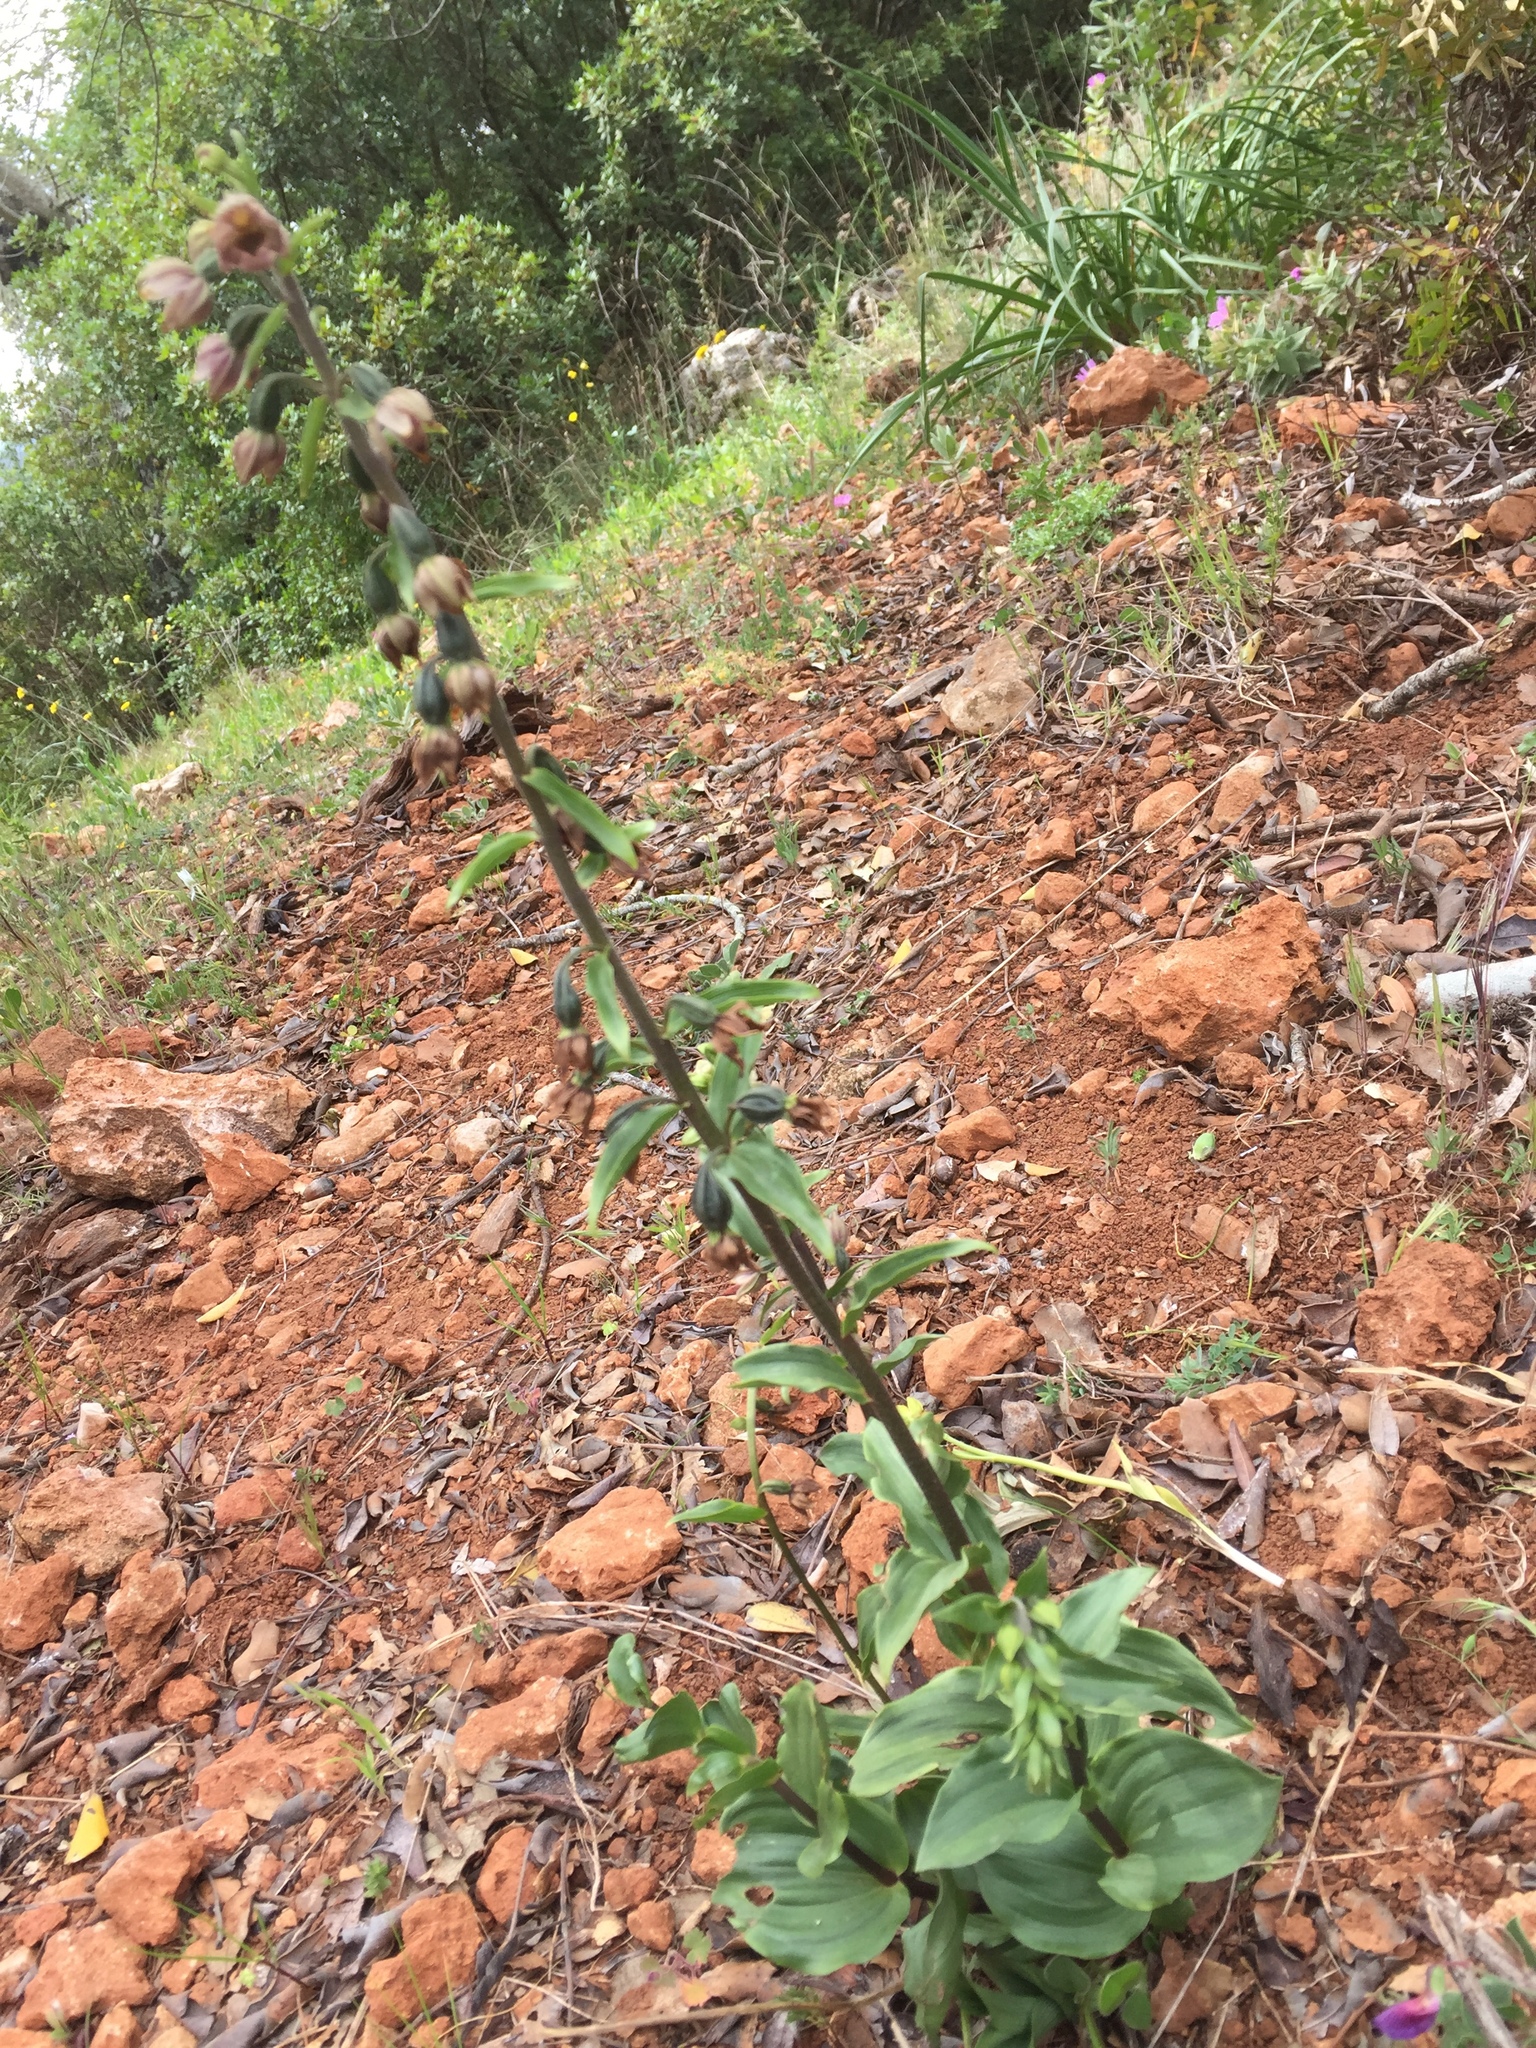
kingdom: Plantae
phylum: Tracheophyta
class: Liliopsida
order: Asparagales
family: Orchidaceae
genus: Epipactis
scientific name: Epipactis helleborine
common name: Broad-leaved helleborine
